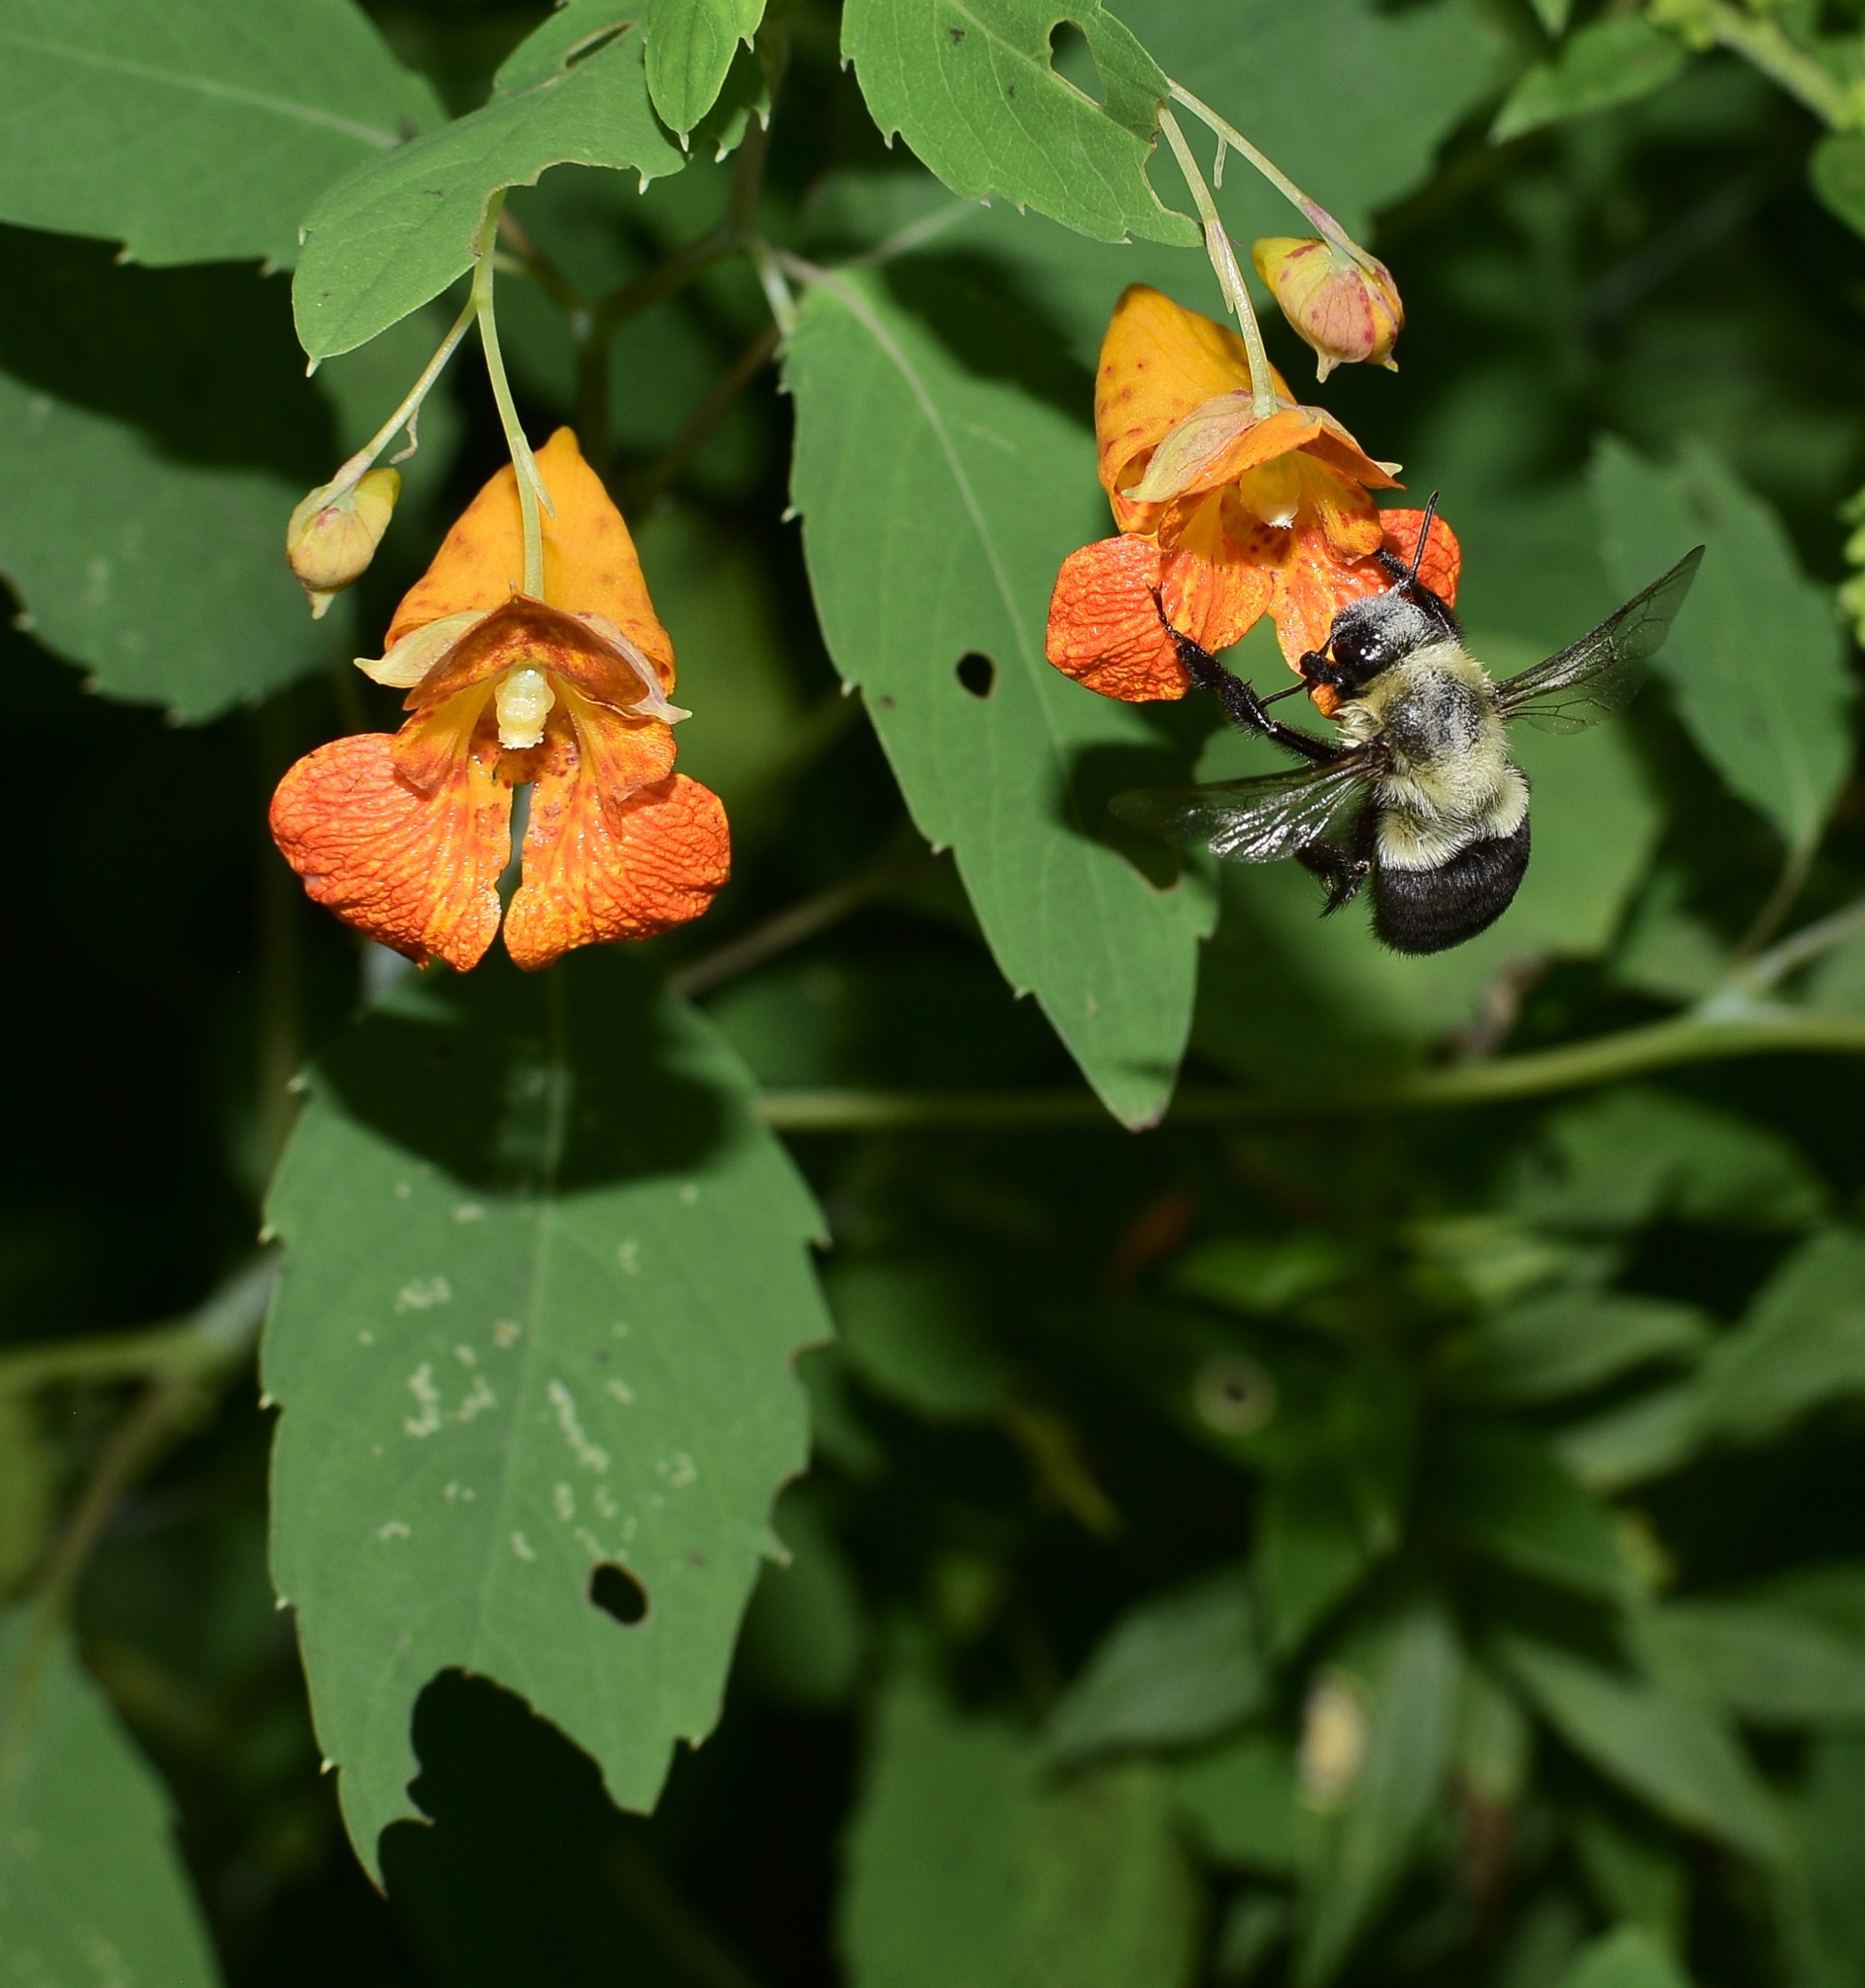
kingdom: Animalia
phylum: Arthropoda
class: Insecta
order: Hymenoptera
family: Apidae
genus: Bombus
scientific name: Bombus impatiens
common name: Common eastern bumble bee
